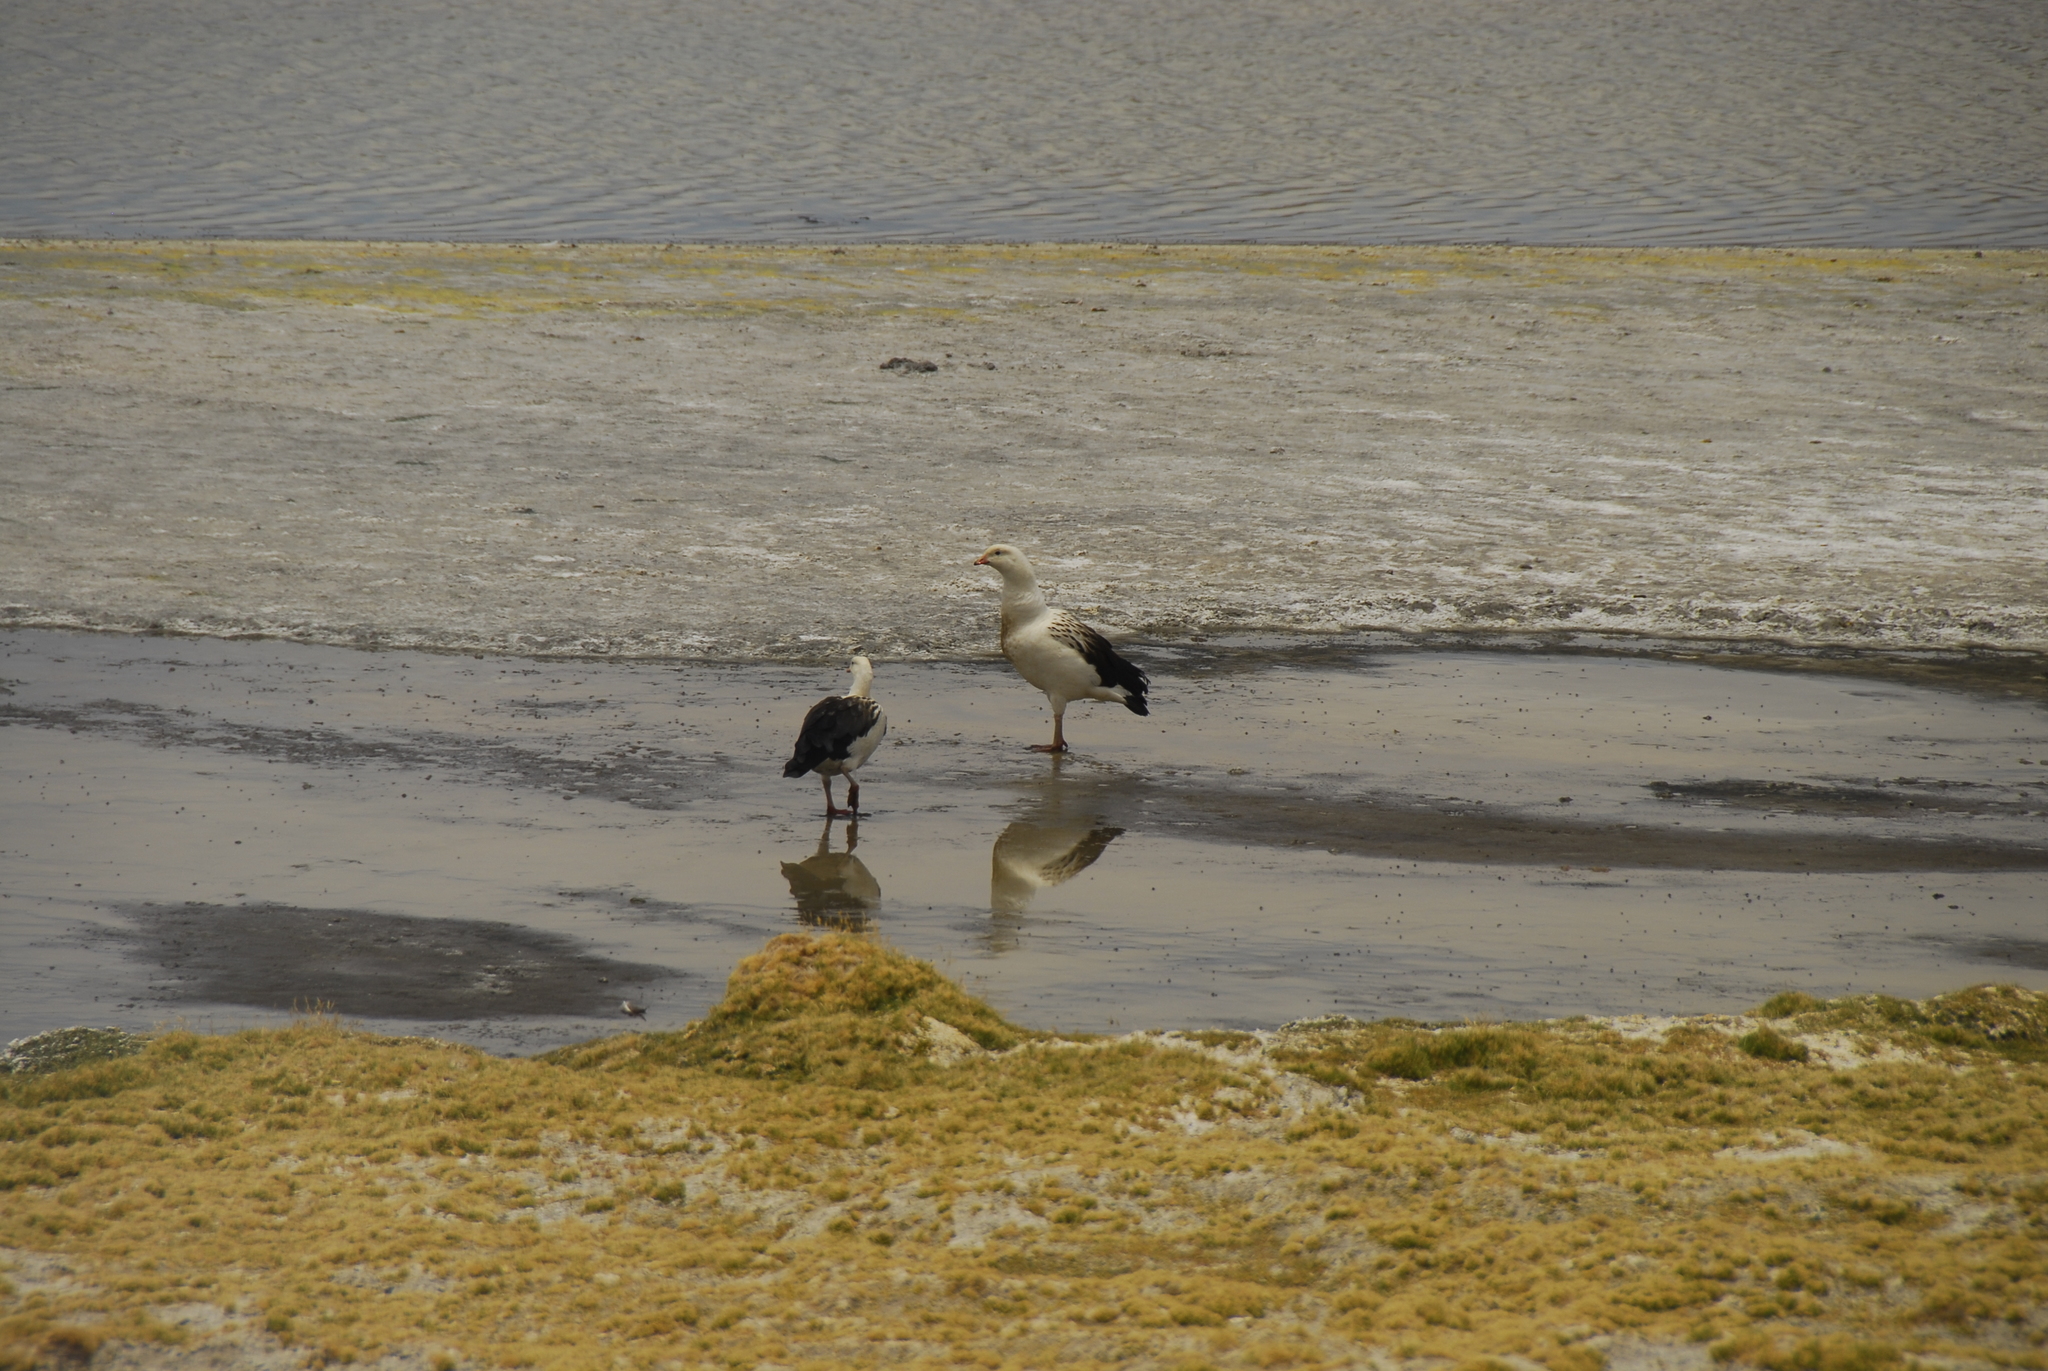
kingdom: Animalia
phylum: Chordata
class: Aves
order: Anseriformes
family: Anatidae
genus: Chloephaga
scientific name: Chloephaga melanoptera
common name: Andean goose
